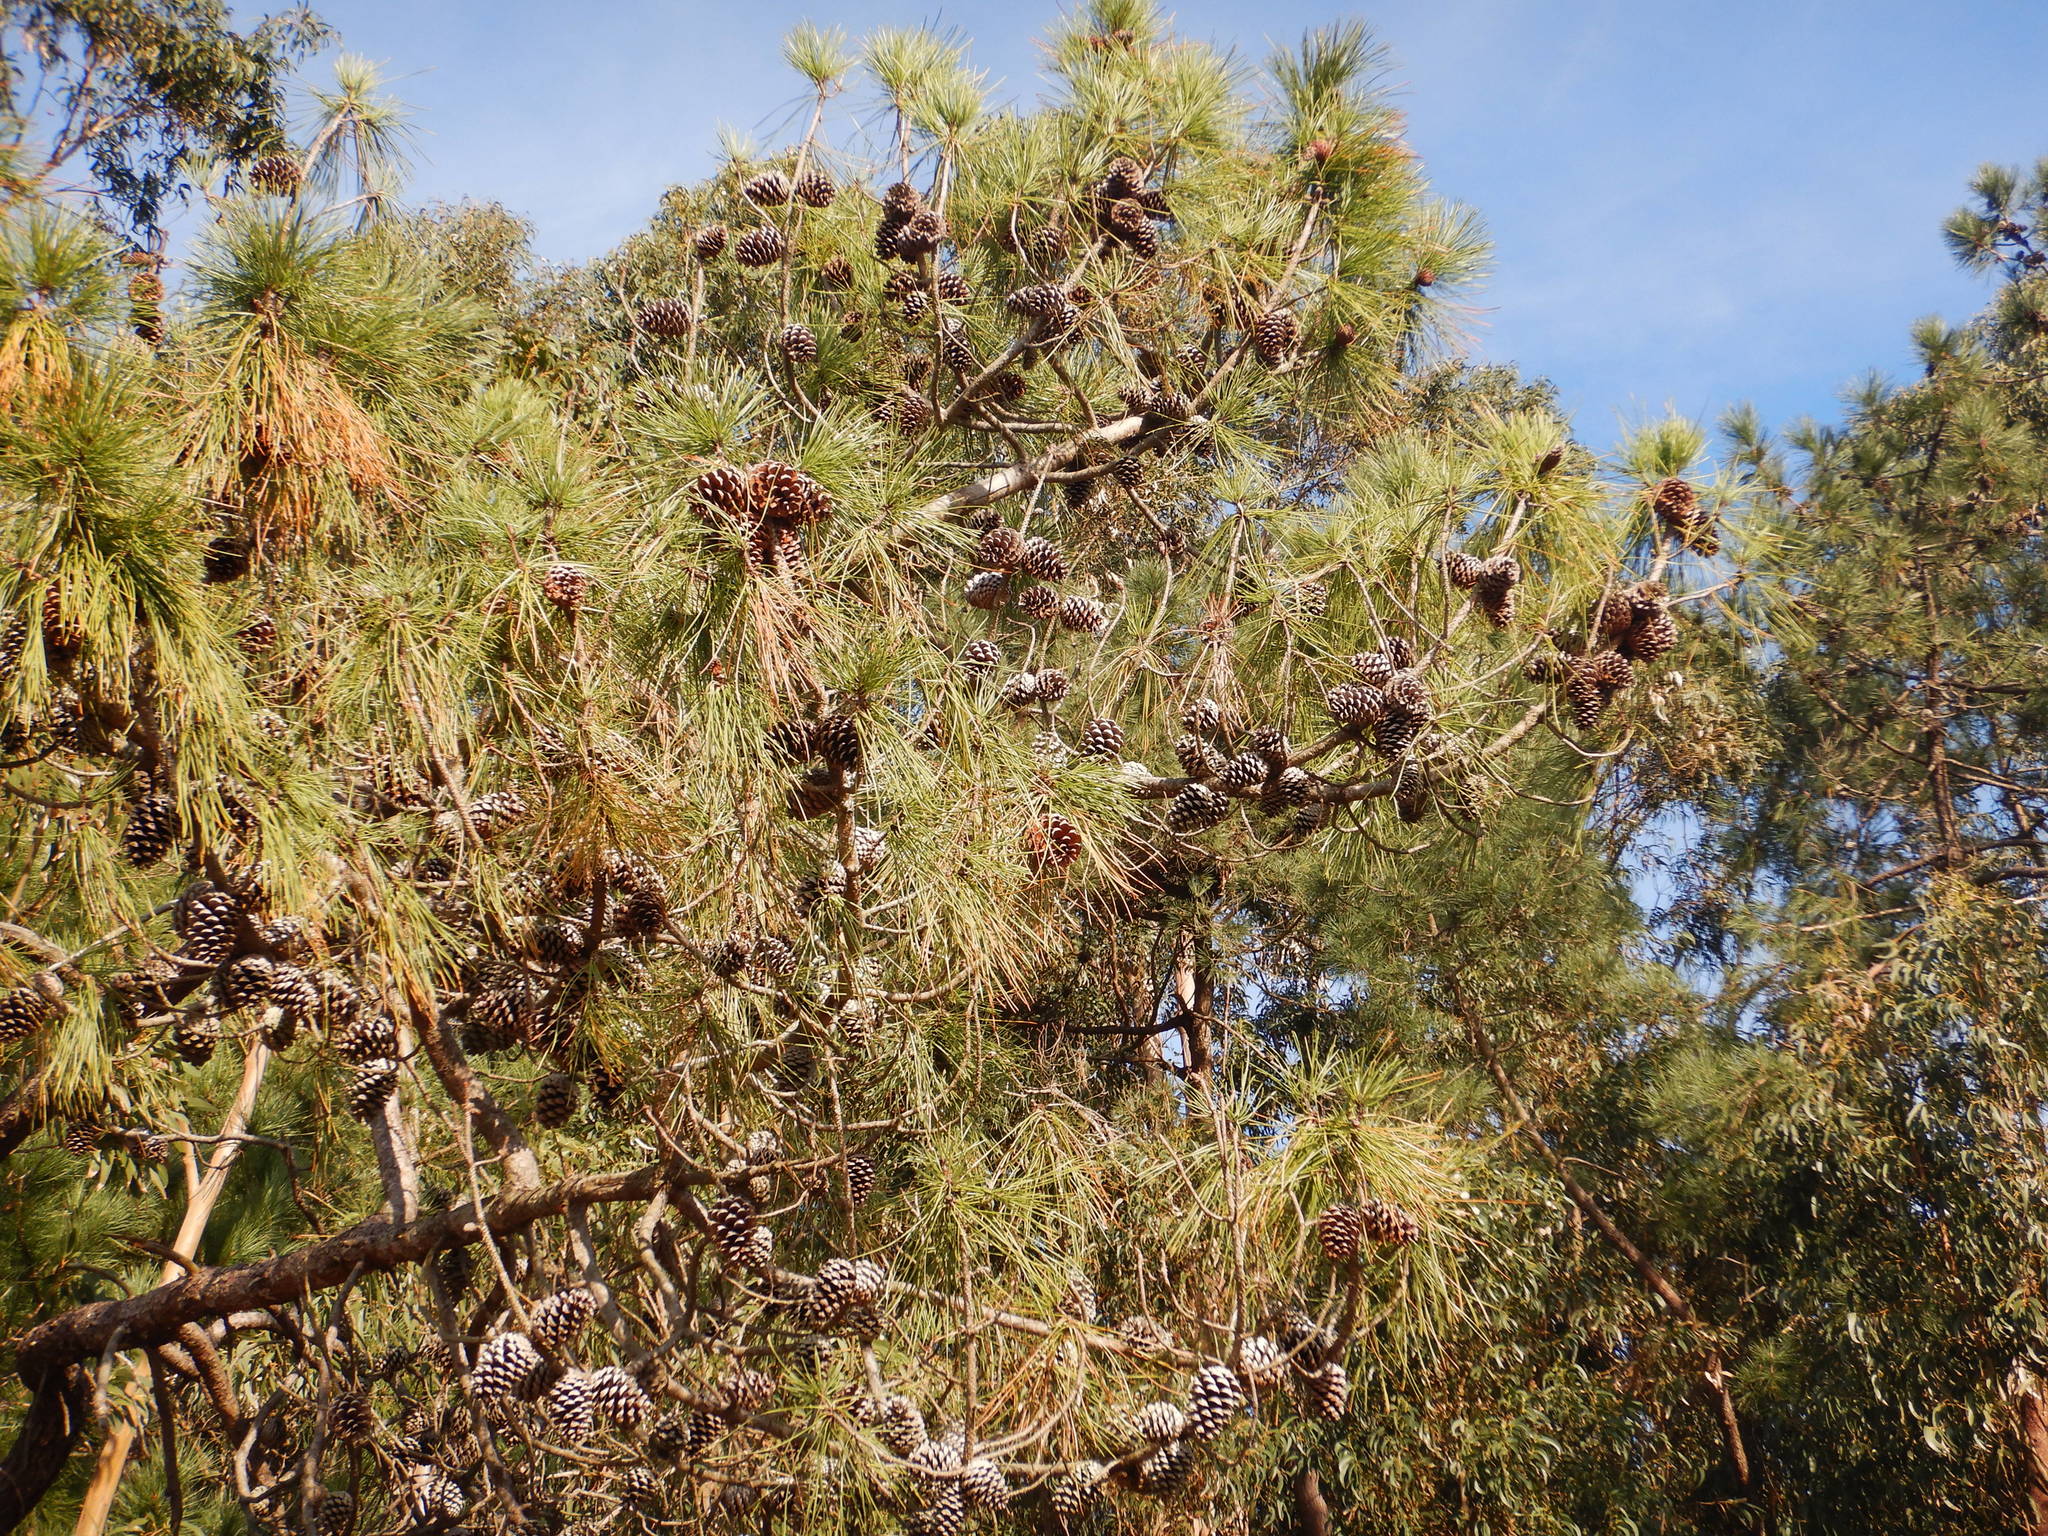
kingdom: Plantae
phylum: Tracheophyta
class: Pinopsida
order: Pinales
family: Pinaceae
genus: Pinus
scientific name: Pinus pinaster
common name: Maritime pine
